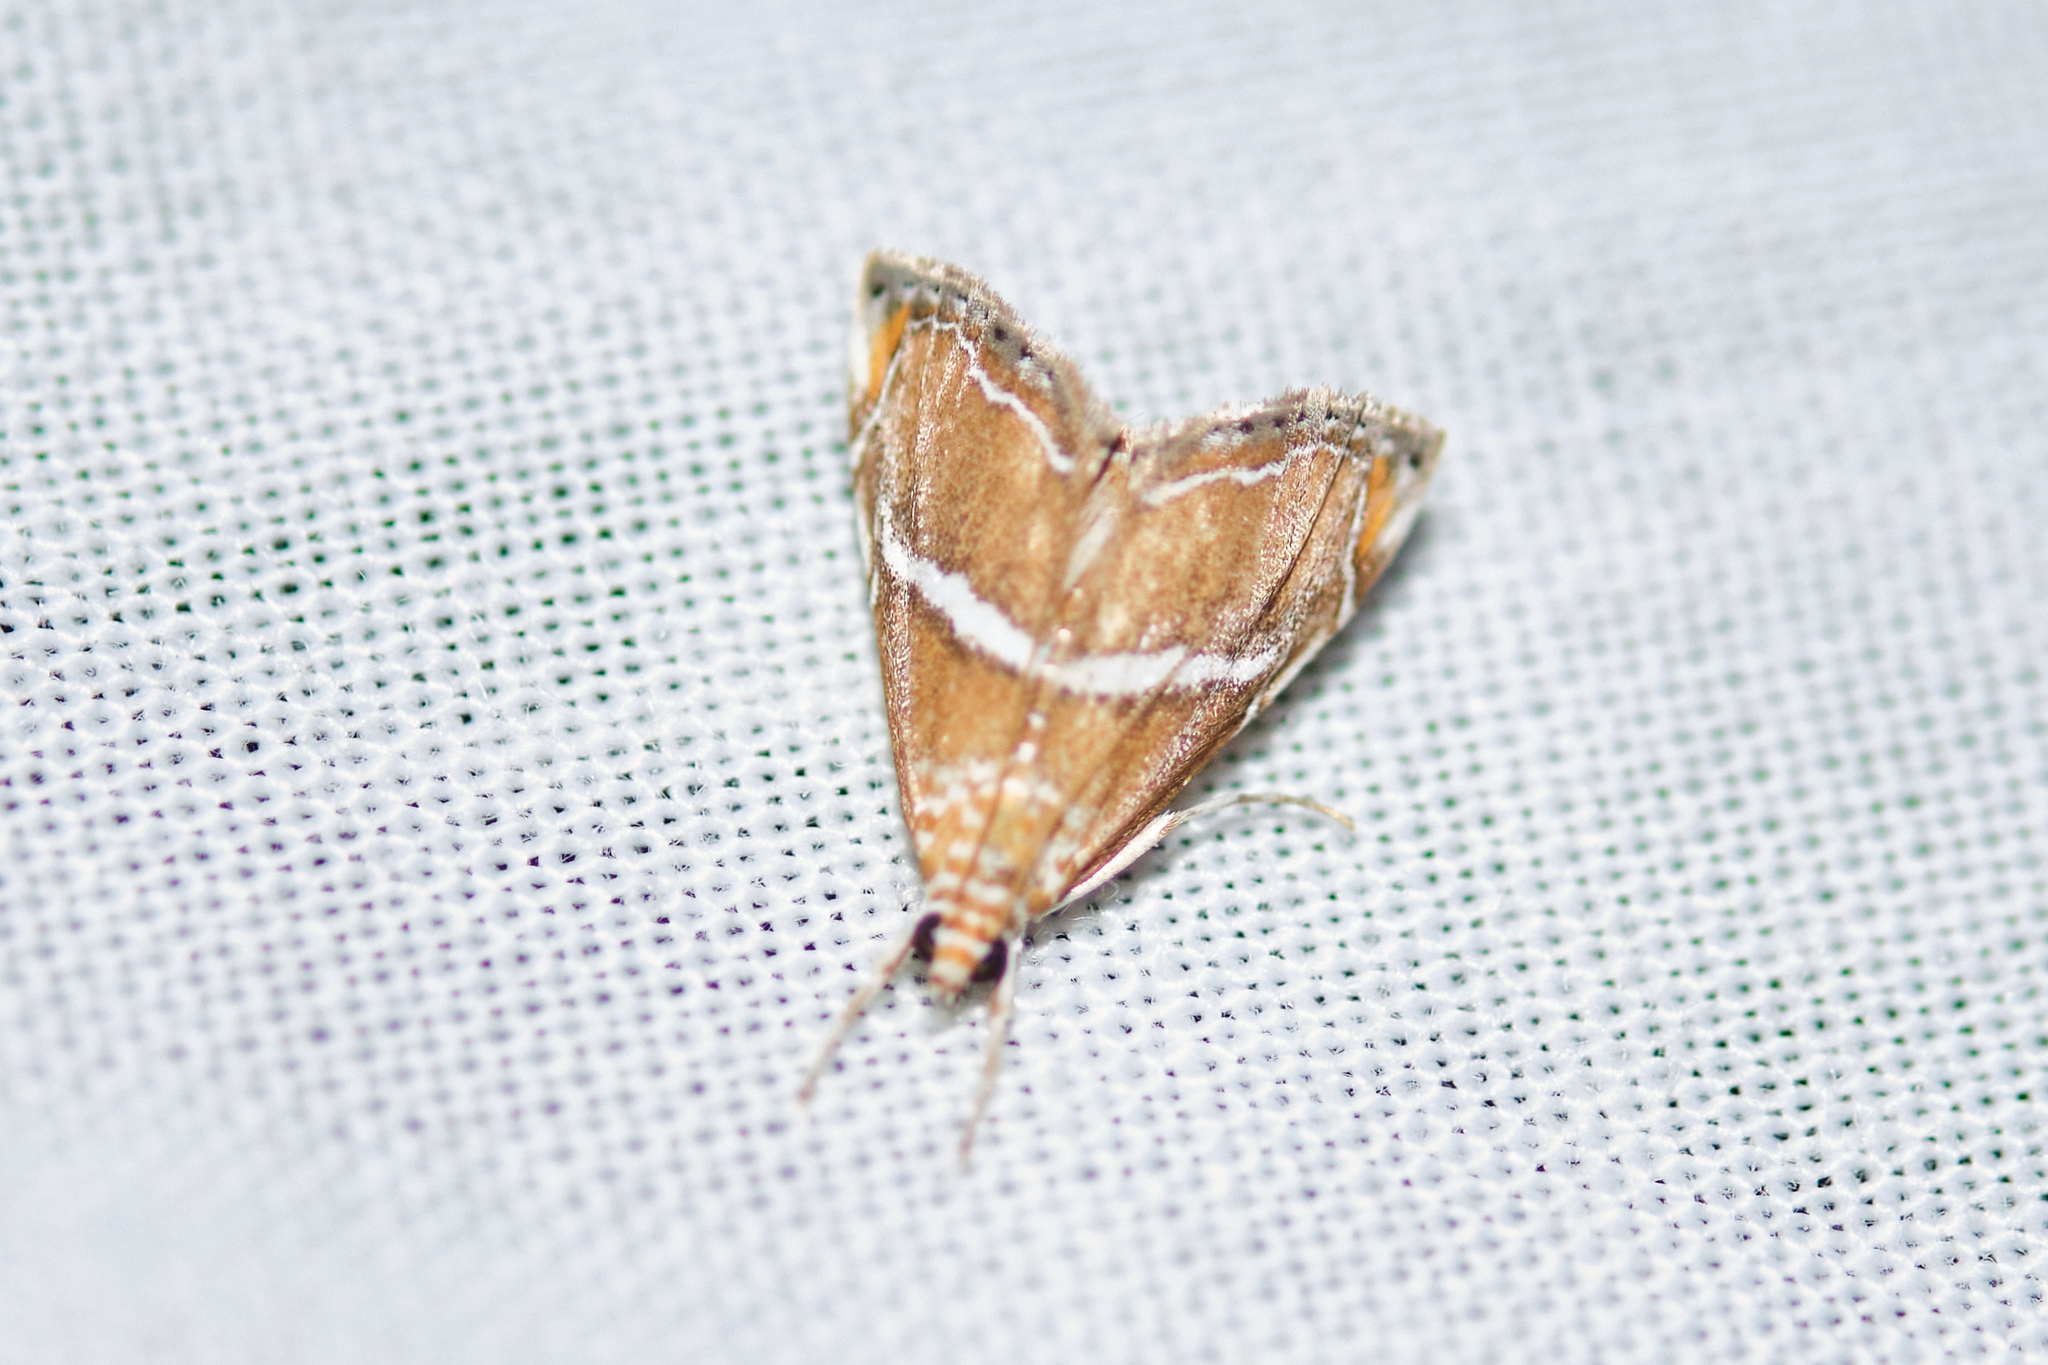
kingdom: Animalia
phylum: Arthropoda
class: Insecta
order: Lepidoptera
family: Crambidae
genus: Abegesta
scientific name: Abegesta remellalis
